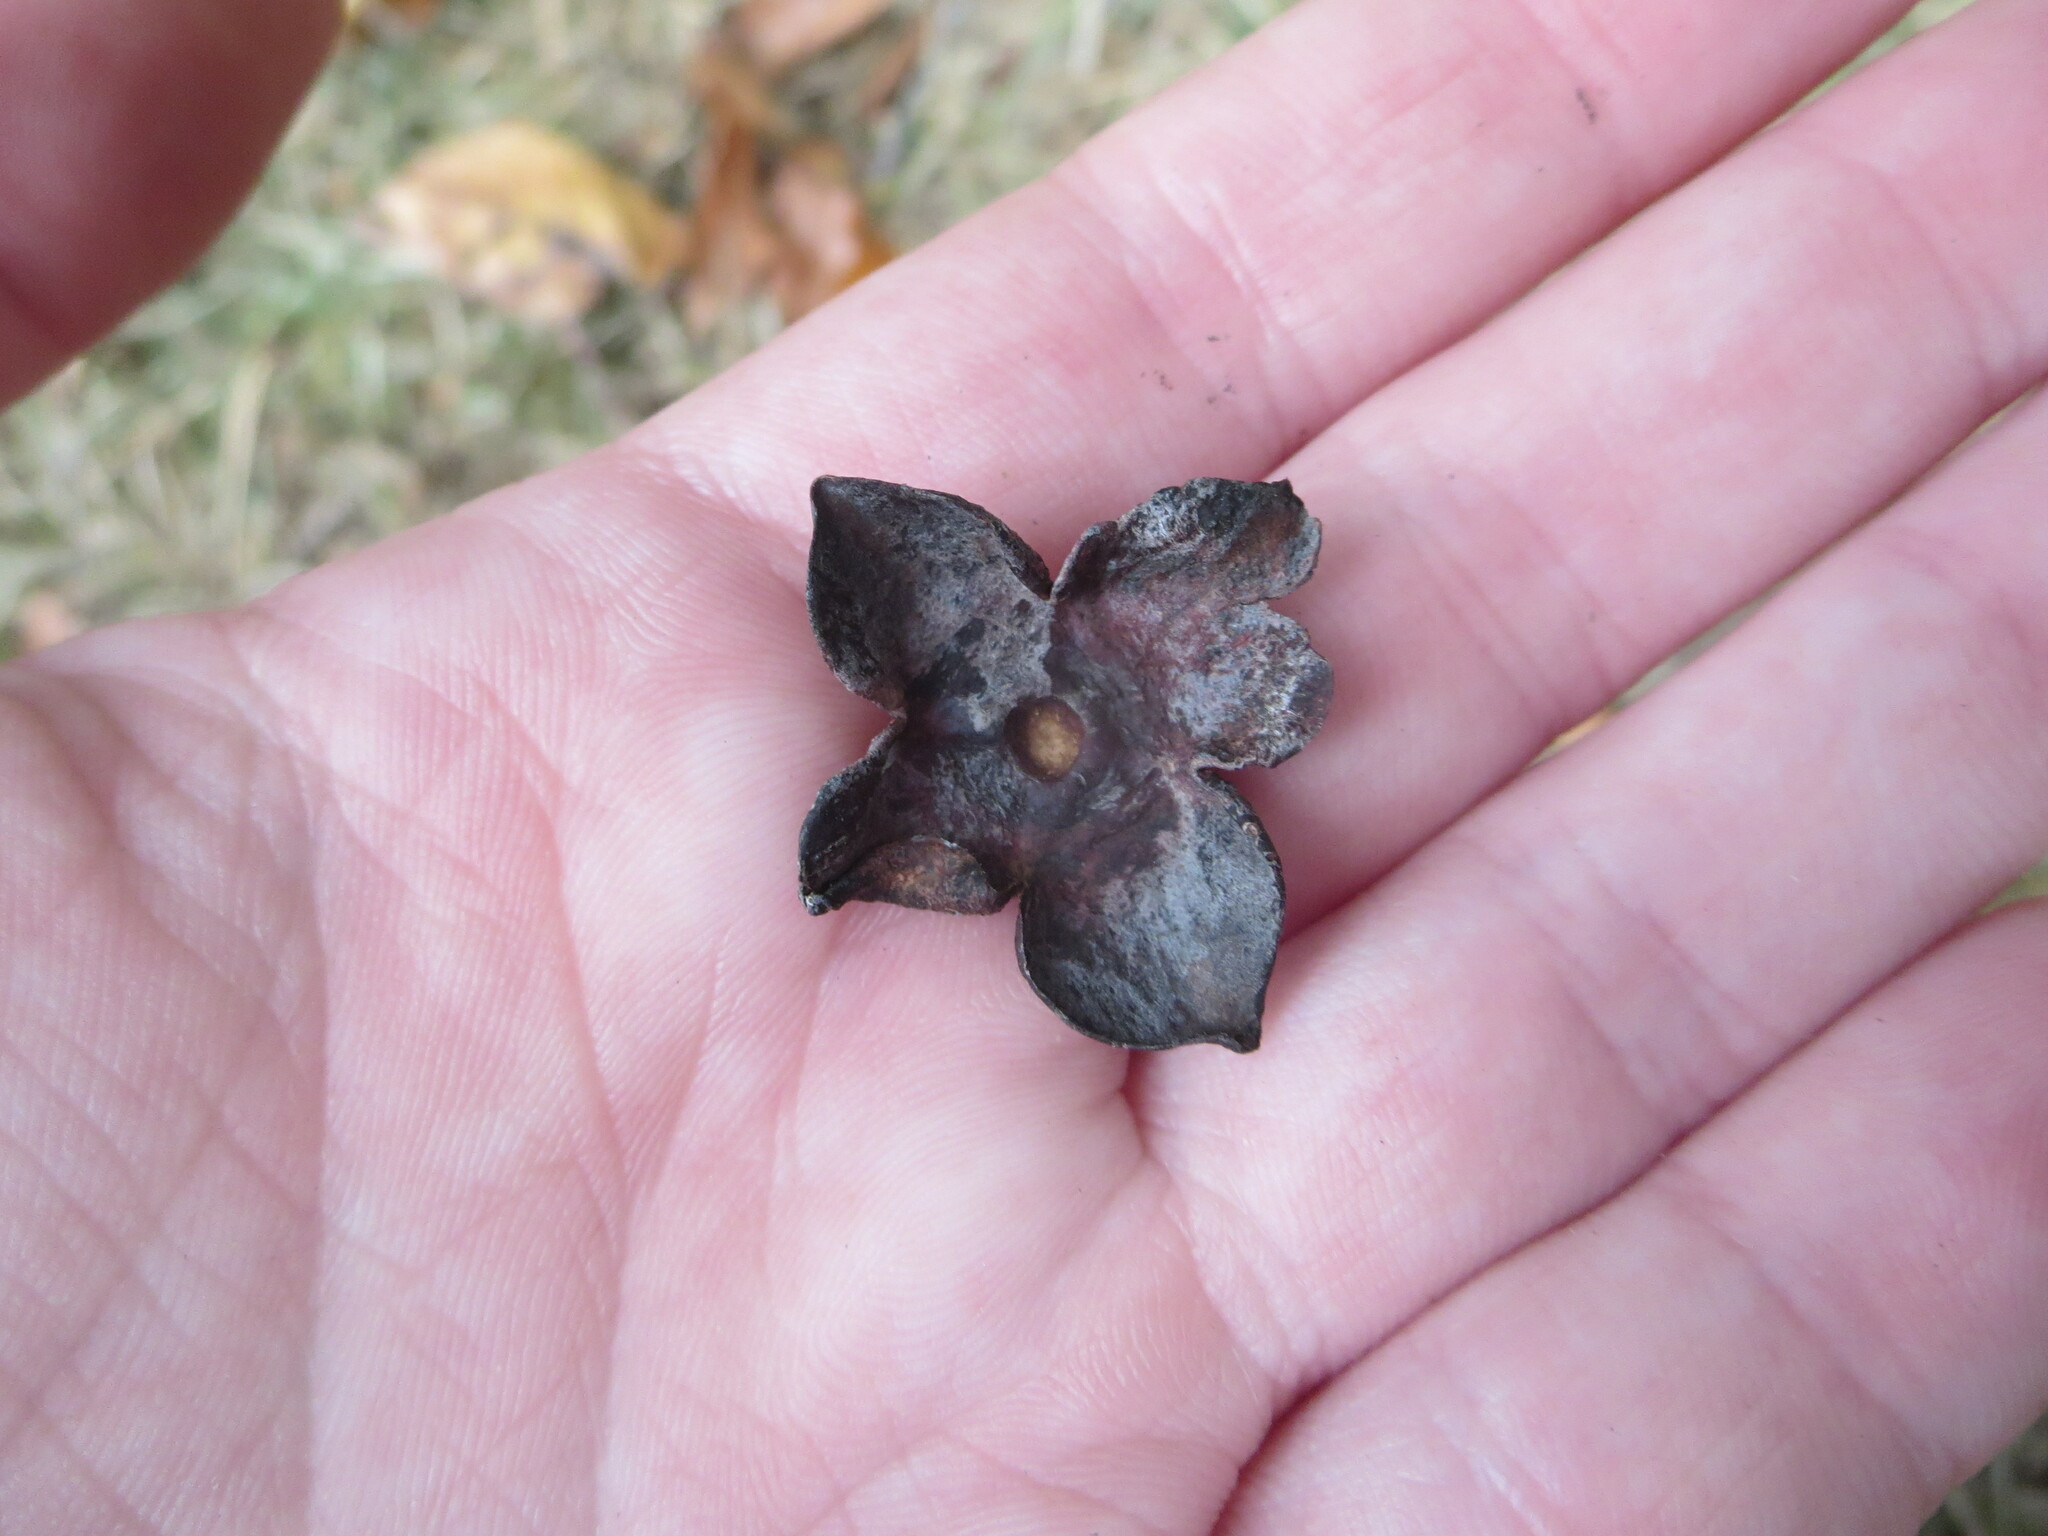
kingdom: Plantae
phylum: Tracheophyta
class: Magnoliopsida
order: Ericales
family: Ebenaceae
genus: Diospyros
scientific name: Diospyros virginiana
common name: Persimmon
